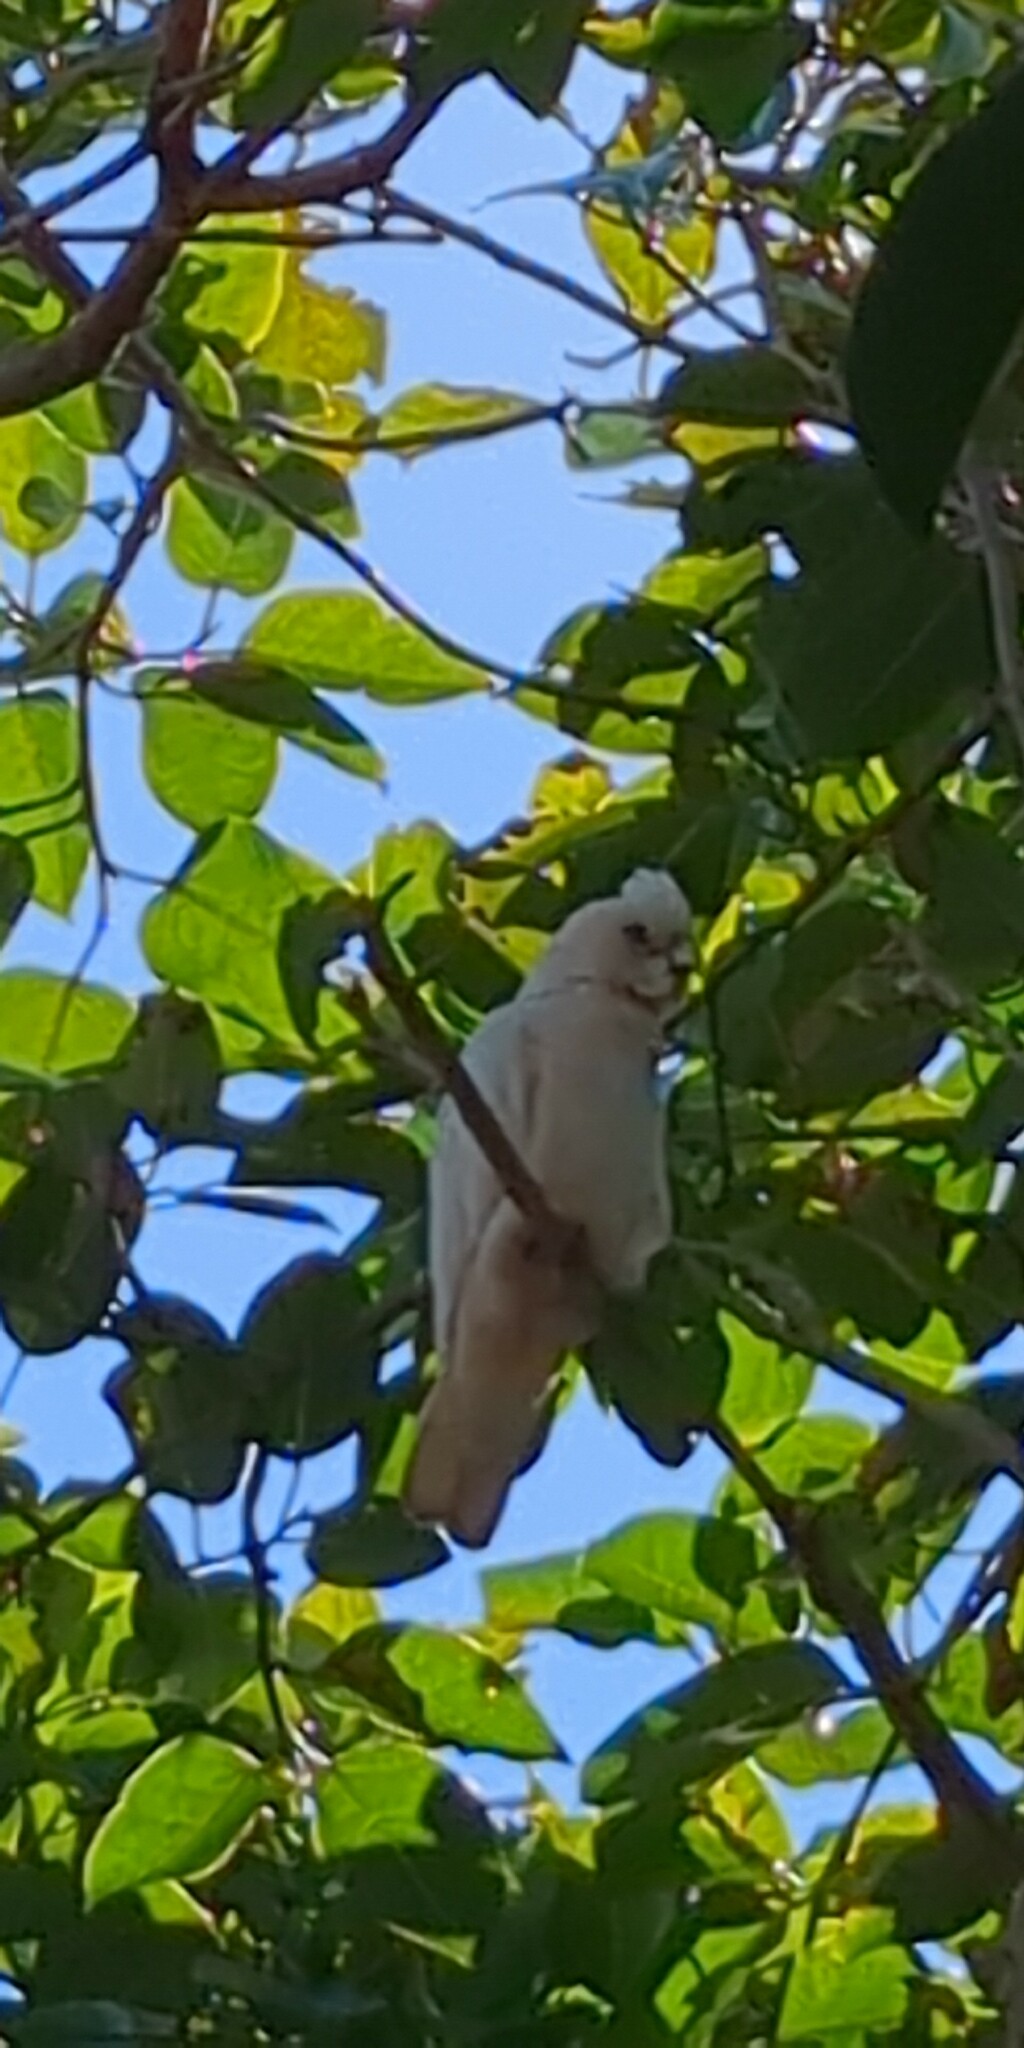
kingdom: Animalia
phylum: Chordata
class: Aves
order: Psittaciformes
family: Psittacidae
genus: Cacatua
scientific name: Cacatua sanguinea
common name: Little corella
